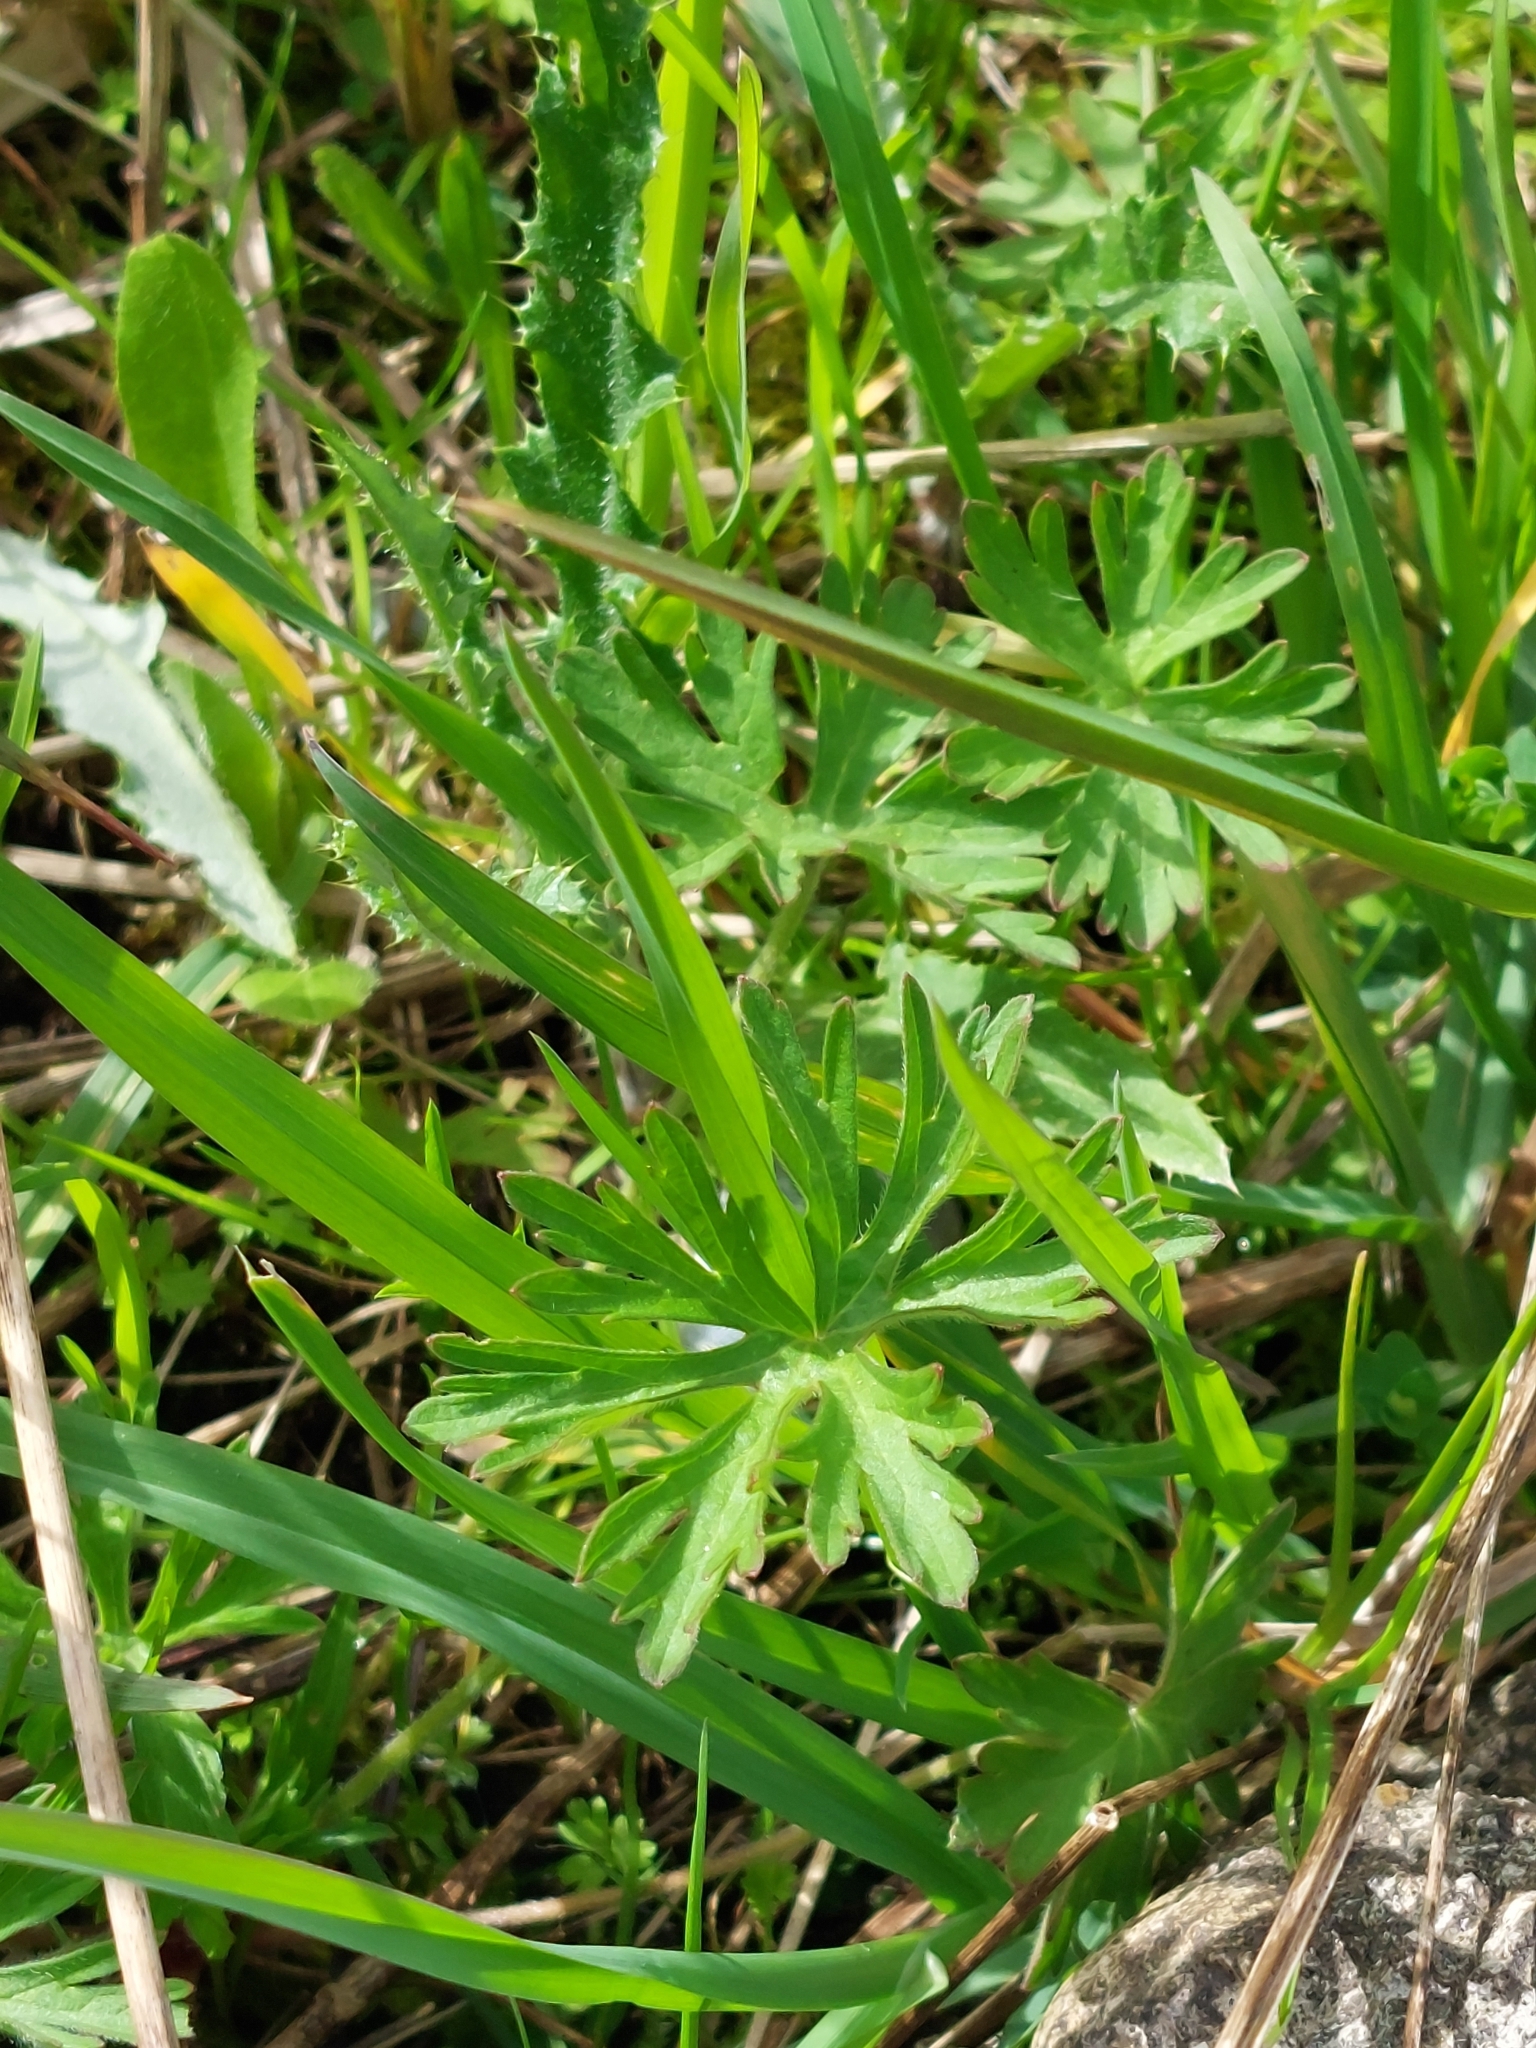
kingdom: Plantae
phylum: Tracheophyta
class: Magnoliopsida
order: Geraniales
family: Geraniaceae
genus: Geranium
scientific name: Geranium dissectum
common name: Cut-leaved crane's-bill
